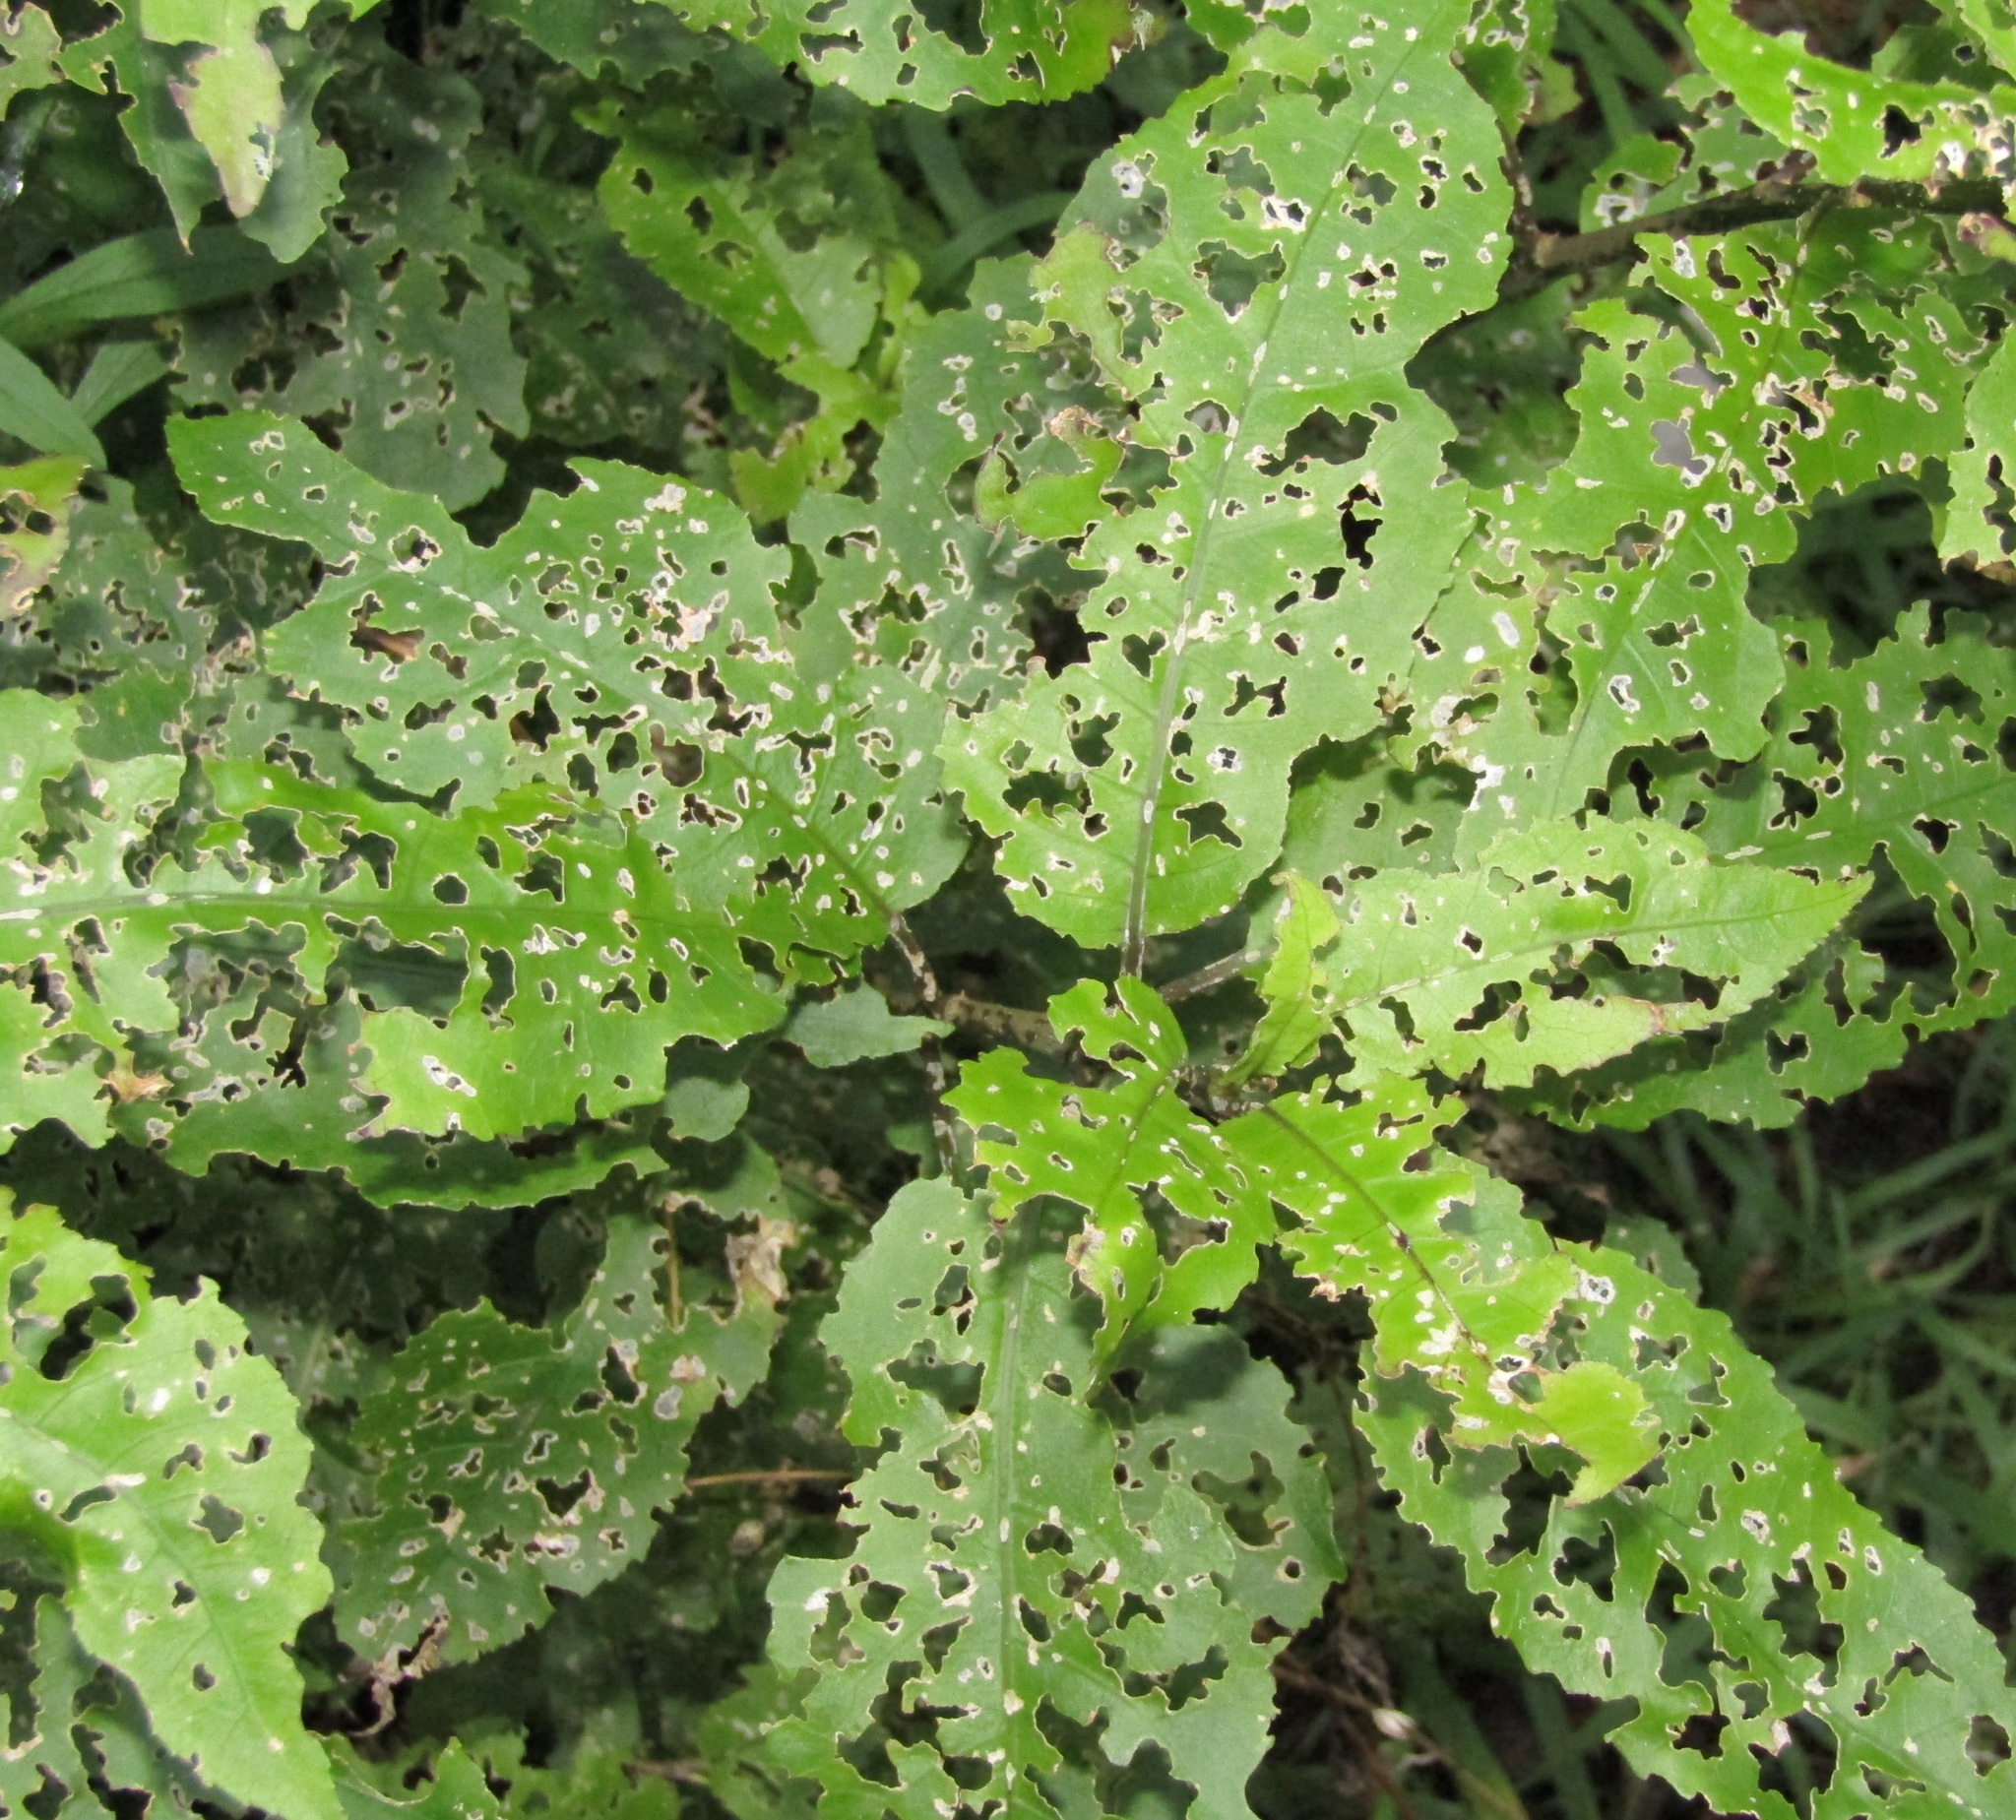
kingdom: Plantae
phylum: Tracheophyta
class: Magnoliopsida
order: Malpighiales
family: Violaceae
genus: Melicytus
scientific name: Melicytus ramiflorus
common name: Mahoe
